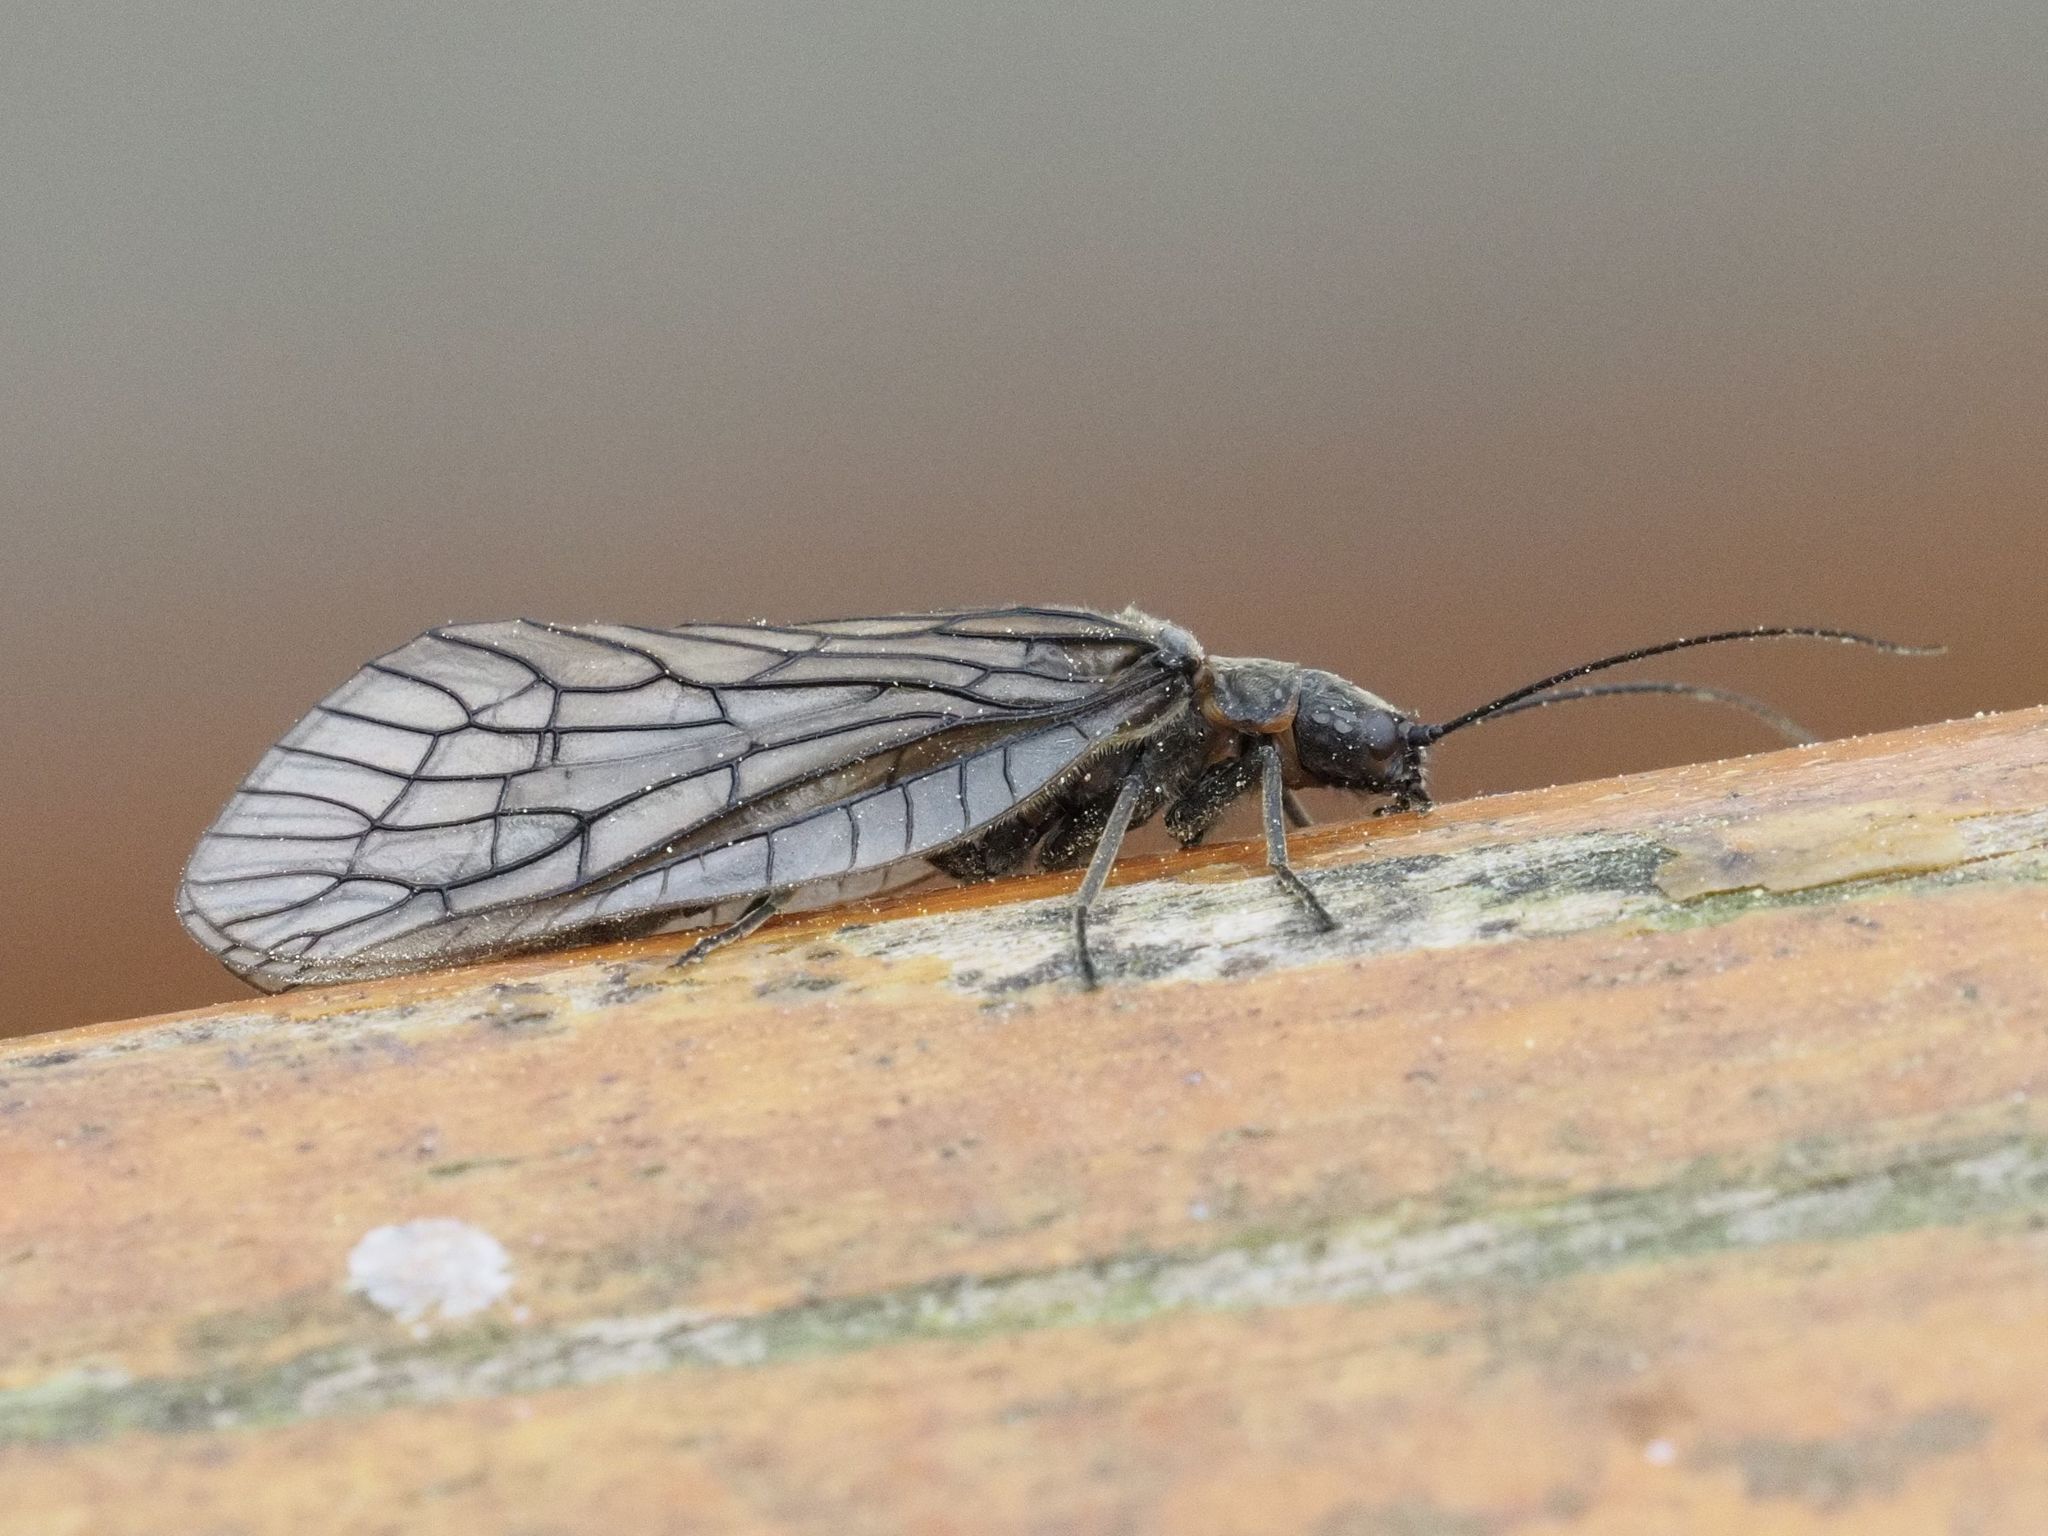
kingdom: Animalia
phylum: Arthropoda
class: Insecta
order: Megaloptera
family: Sialidae
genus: Sialis
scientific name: Sialis
